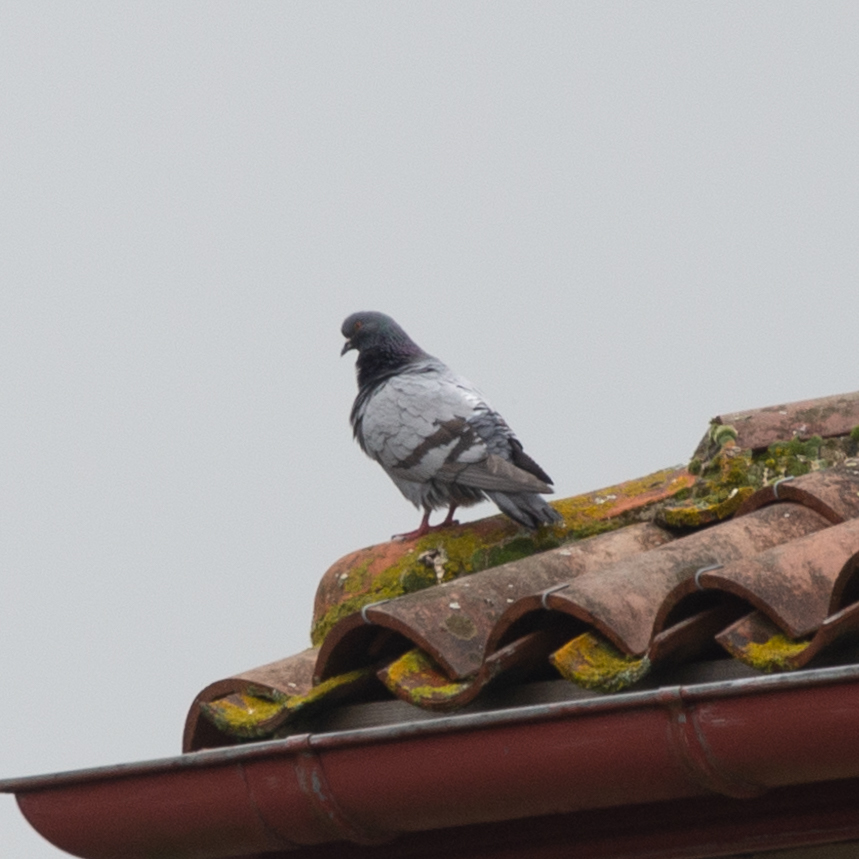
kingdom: Animalia
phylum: Chordata
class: Aves
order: Columbiformes
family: Columbidae
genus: Columba
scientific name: Columba livia
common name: Rock pigeon
